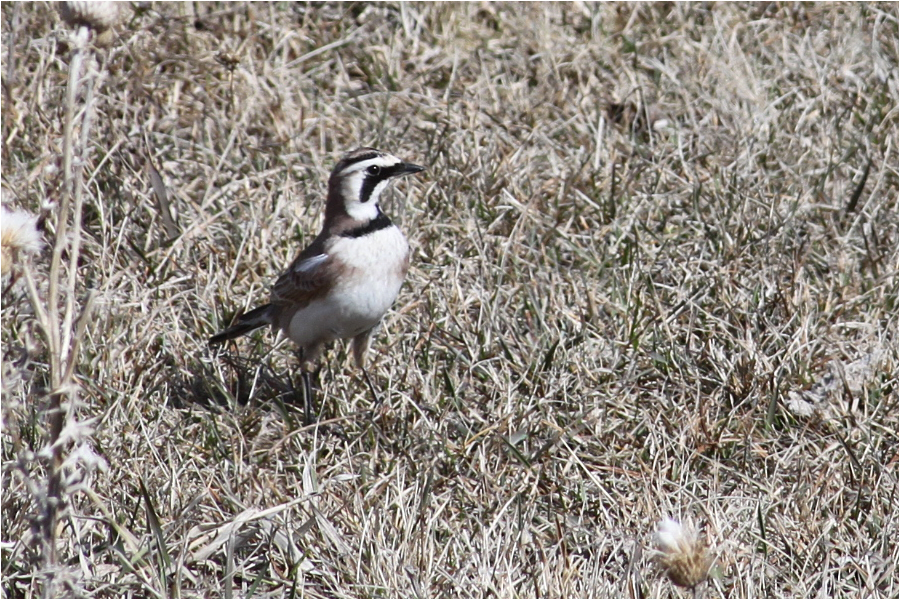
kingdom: Animalia
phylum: Chordata
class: Aves
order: Passeriformes
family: Alaudidae
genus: Eremophila
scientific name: Eremophila alpestris
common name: Horned lark
